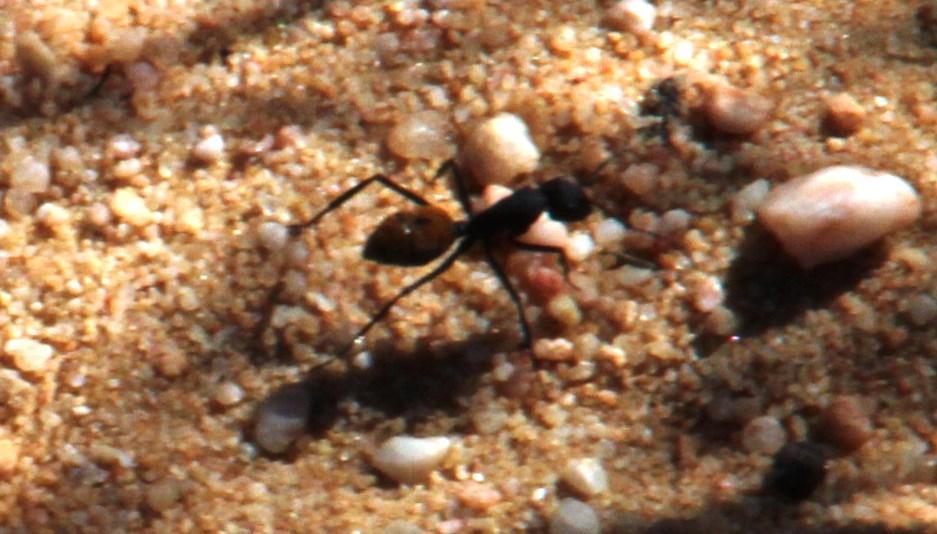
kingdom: Animalia
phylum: Arthropoda
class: Insecta
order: Hymenoptera
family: Formicidae
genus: Camponotus
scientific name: Camponotus fulvopilosus
